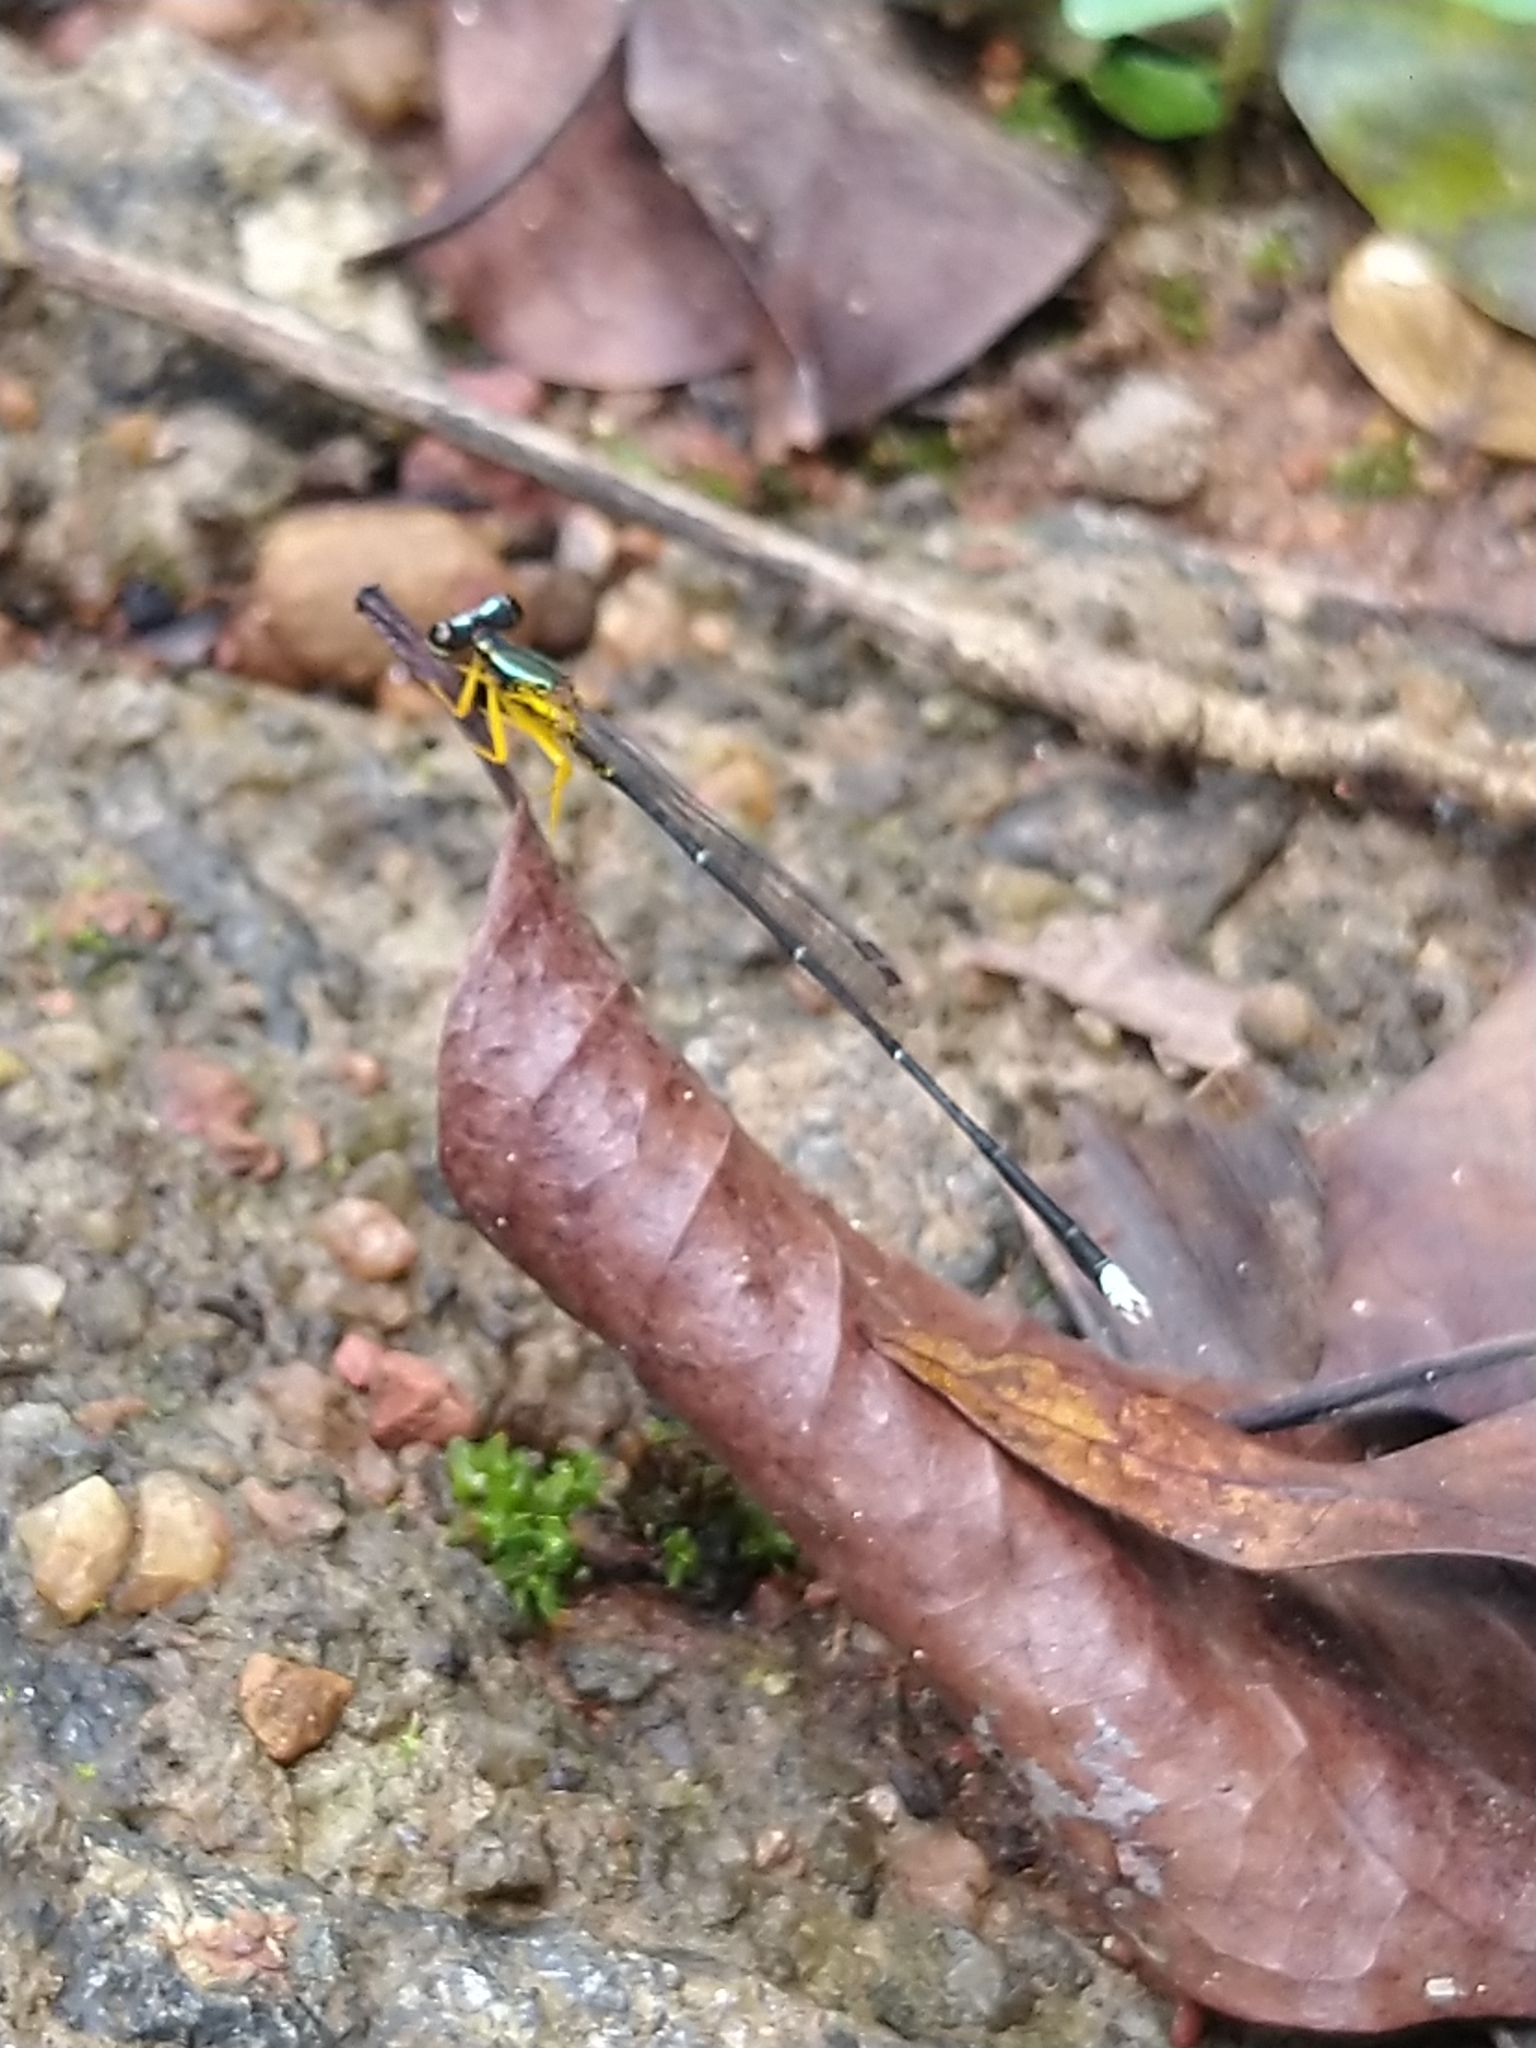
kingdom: Animalia
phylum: Arthropoda
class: Insecta
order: Odonata
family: Platycnemididae
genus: Copera
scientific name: Copera vittata
